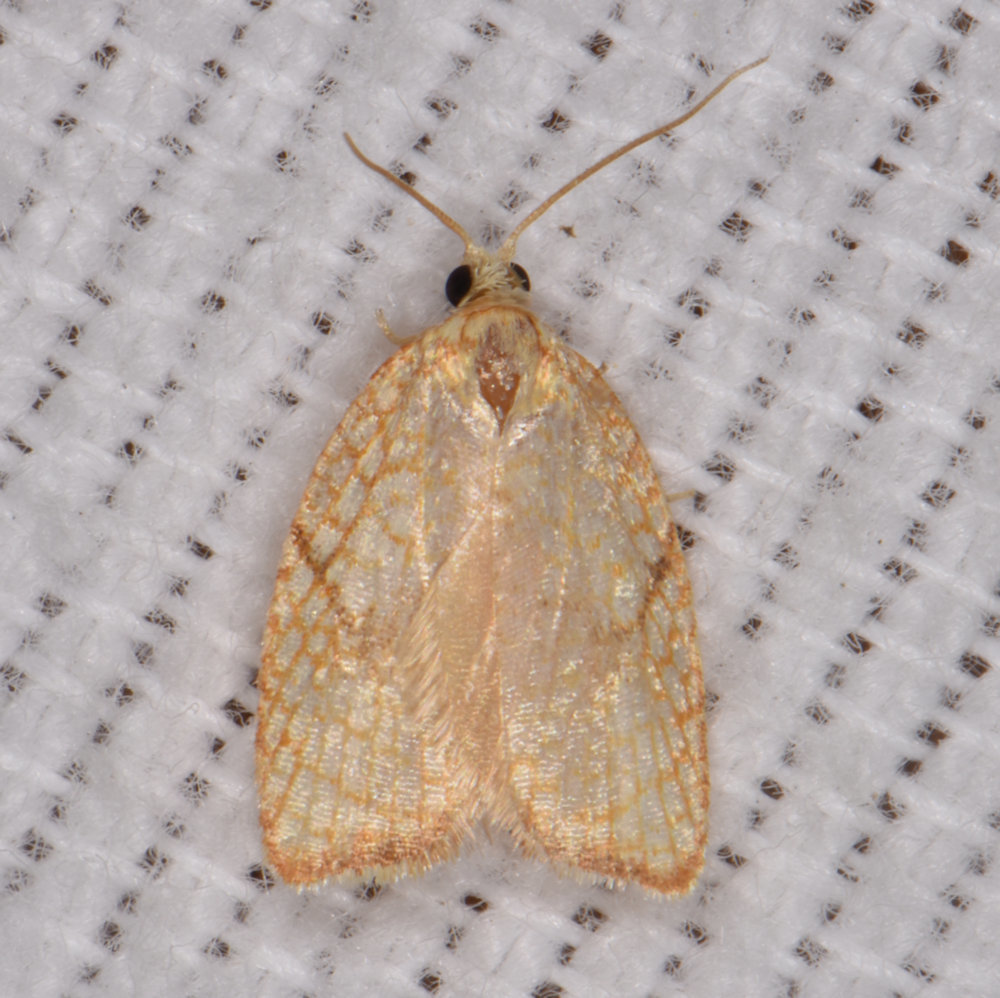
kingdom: Animalia
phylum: Arthropoda
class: Insecta
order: Lepidoptera
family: Tortricidae
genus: Acleris
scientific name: Acleris forsskaleana
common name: Maple button
